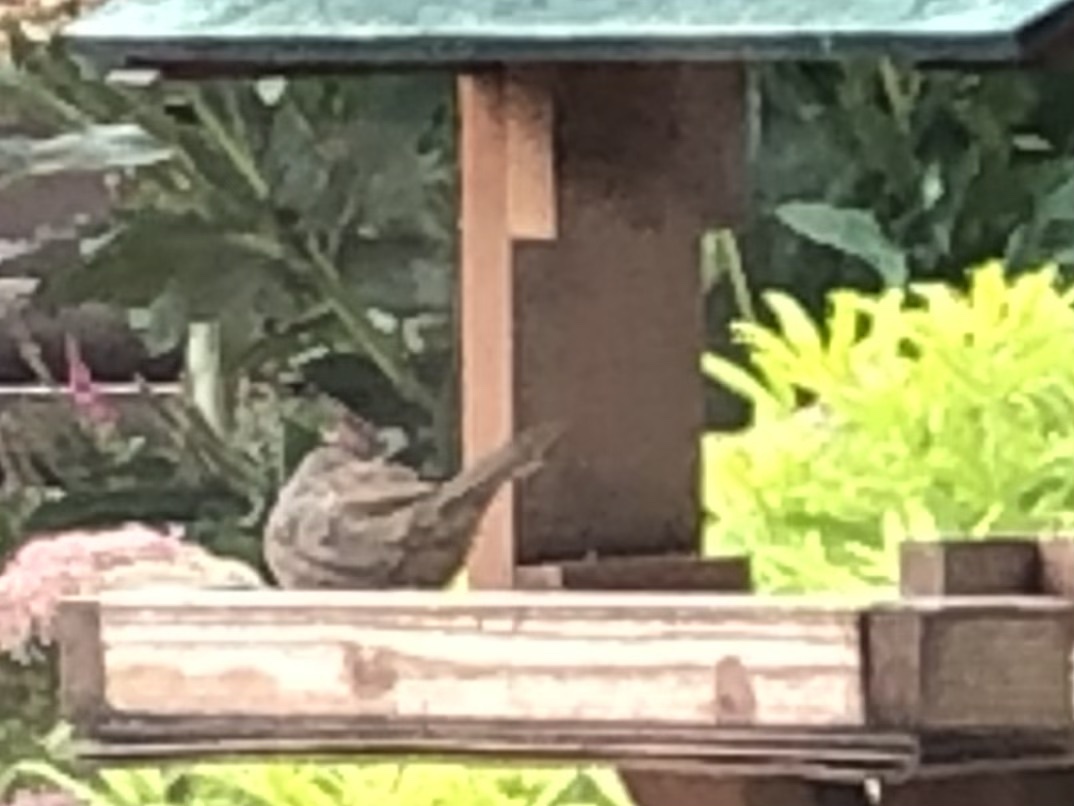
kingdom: Animalia
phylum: Chordata
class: Aves
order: Passeriformes
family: Prunellidae
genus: Prunella
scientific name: Prunella modularis
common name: Dunnock
